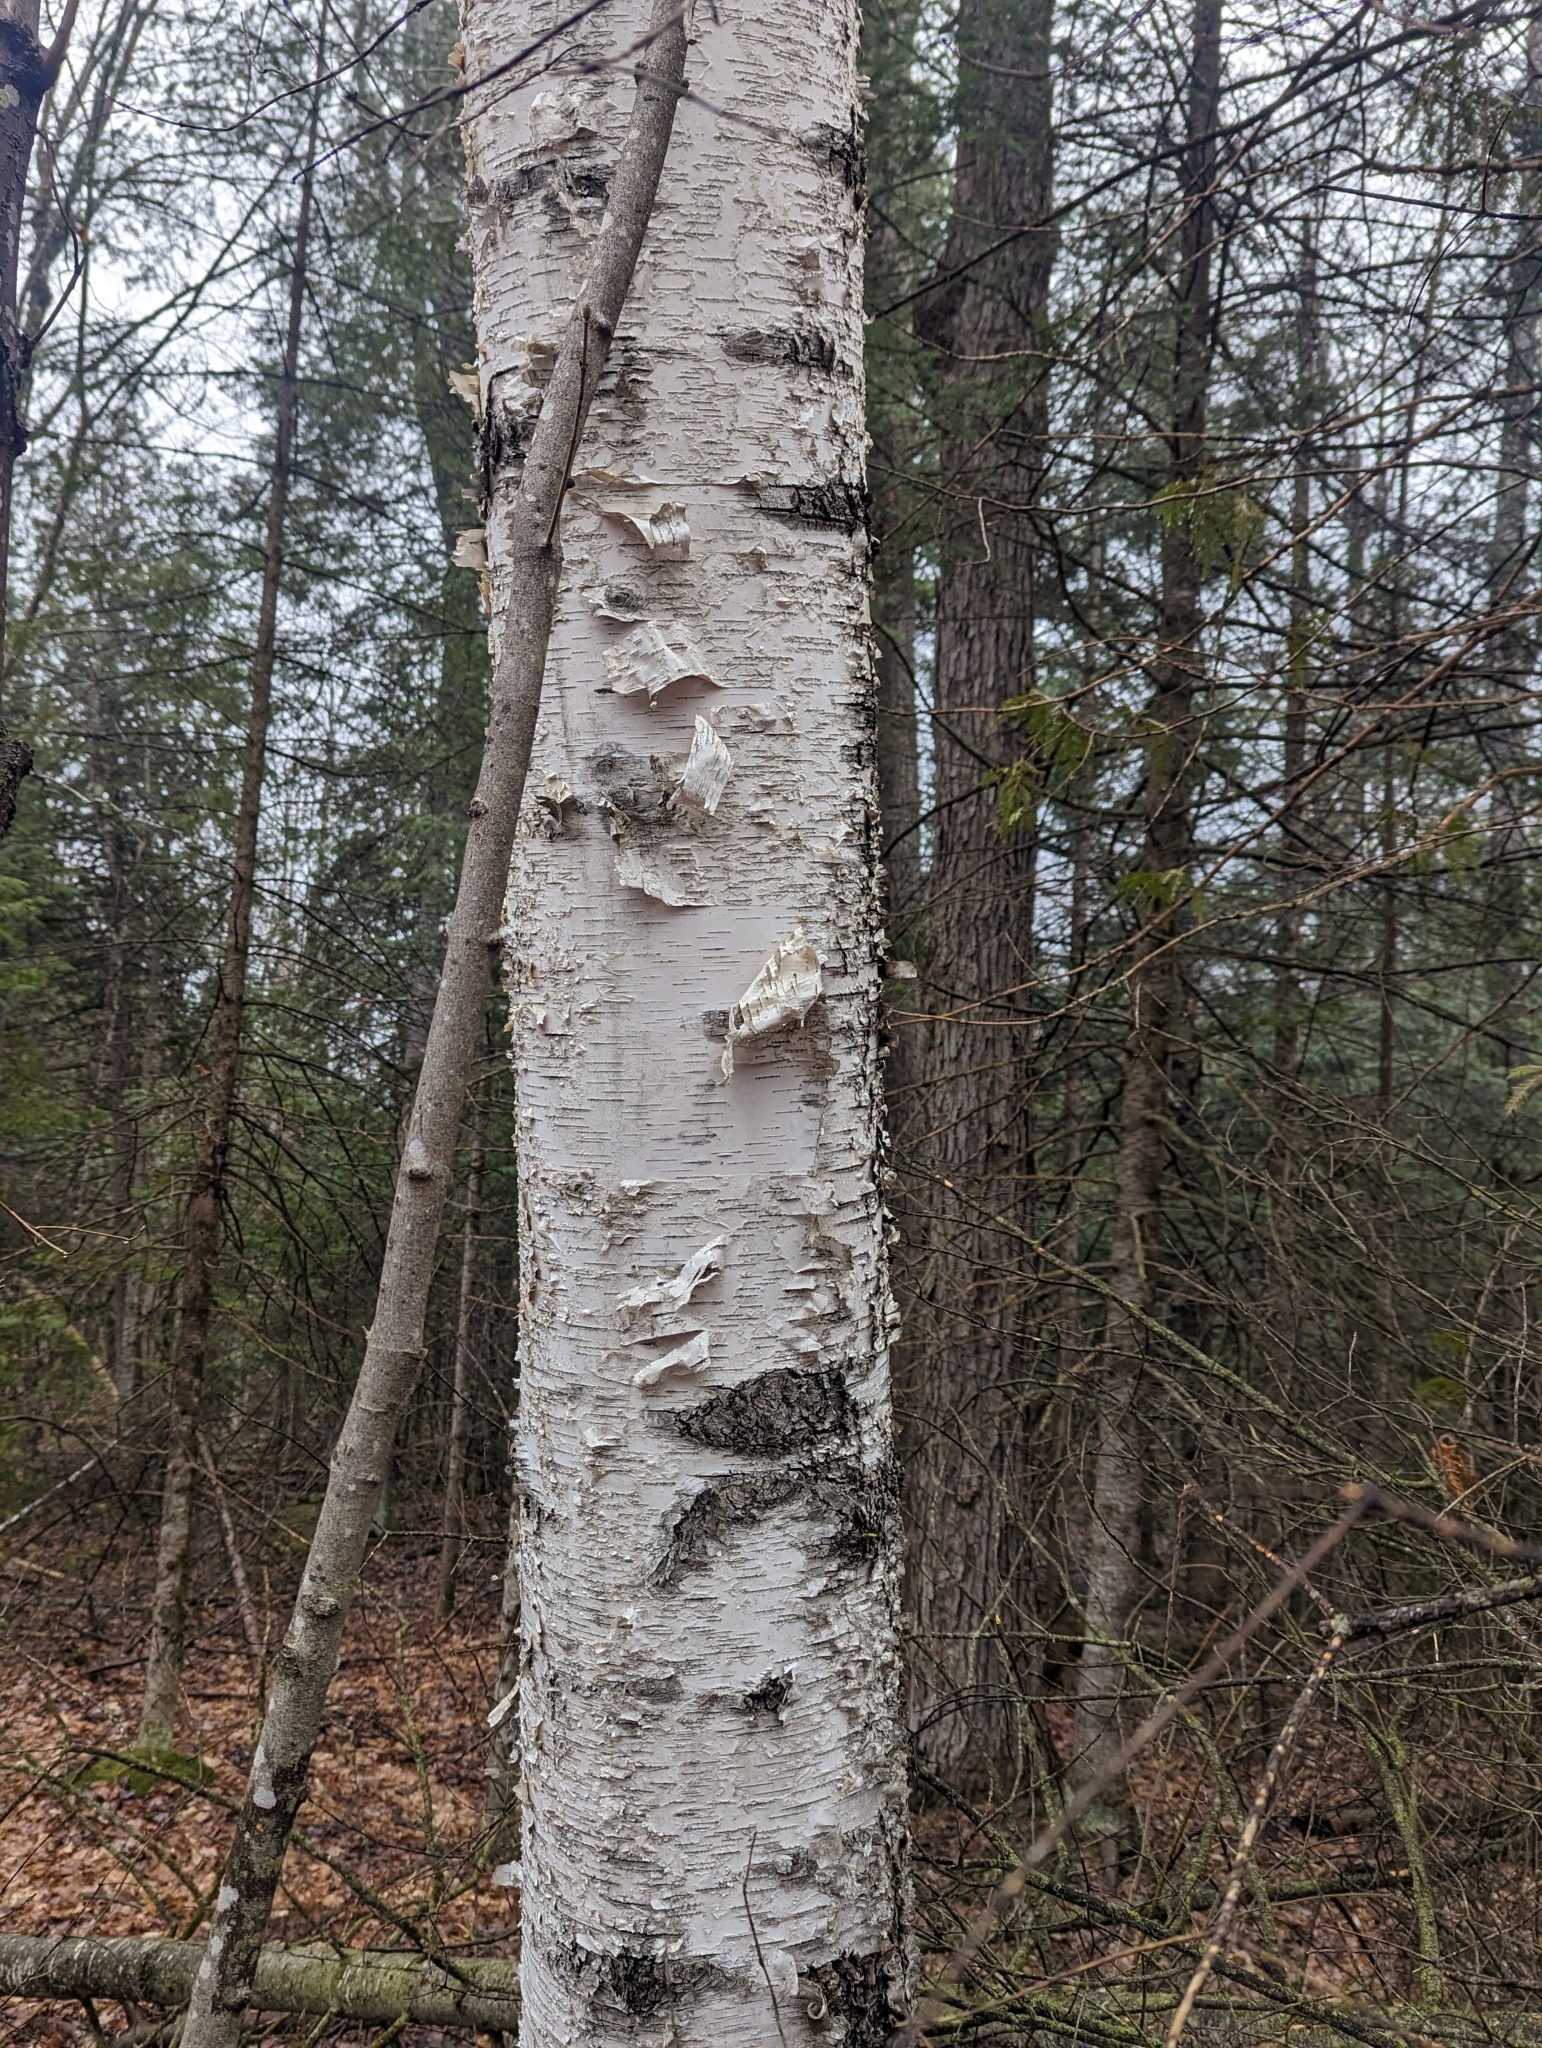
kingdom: Plantae
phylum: Tracheophyta
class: Magnoliopsida
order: Fagales
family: Betulaceae
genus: Betula
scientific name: Betula papyrifera
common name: Paper birch
